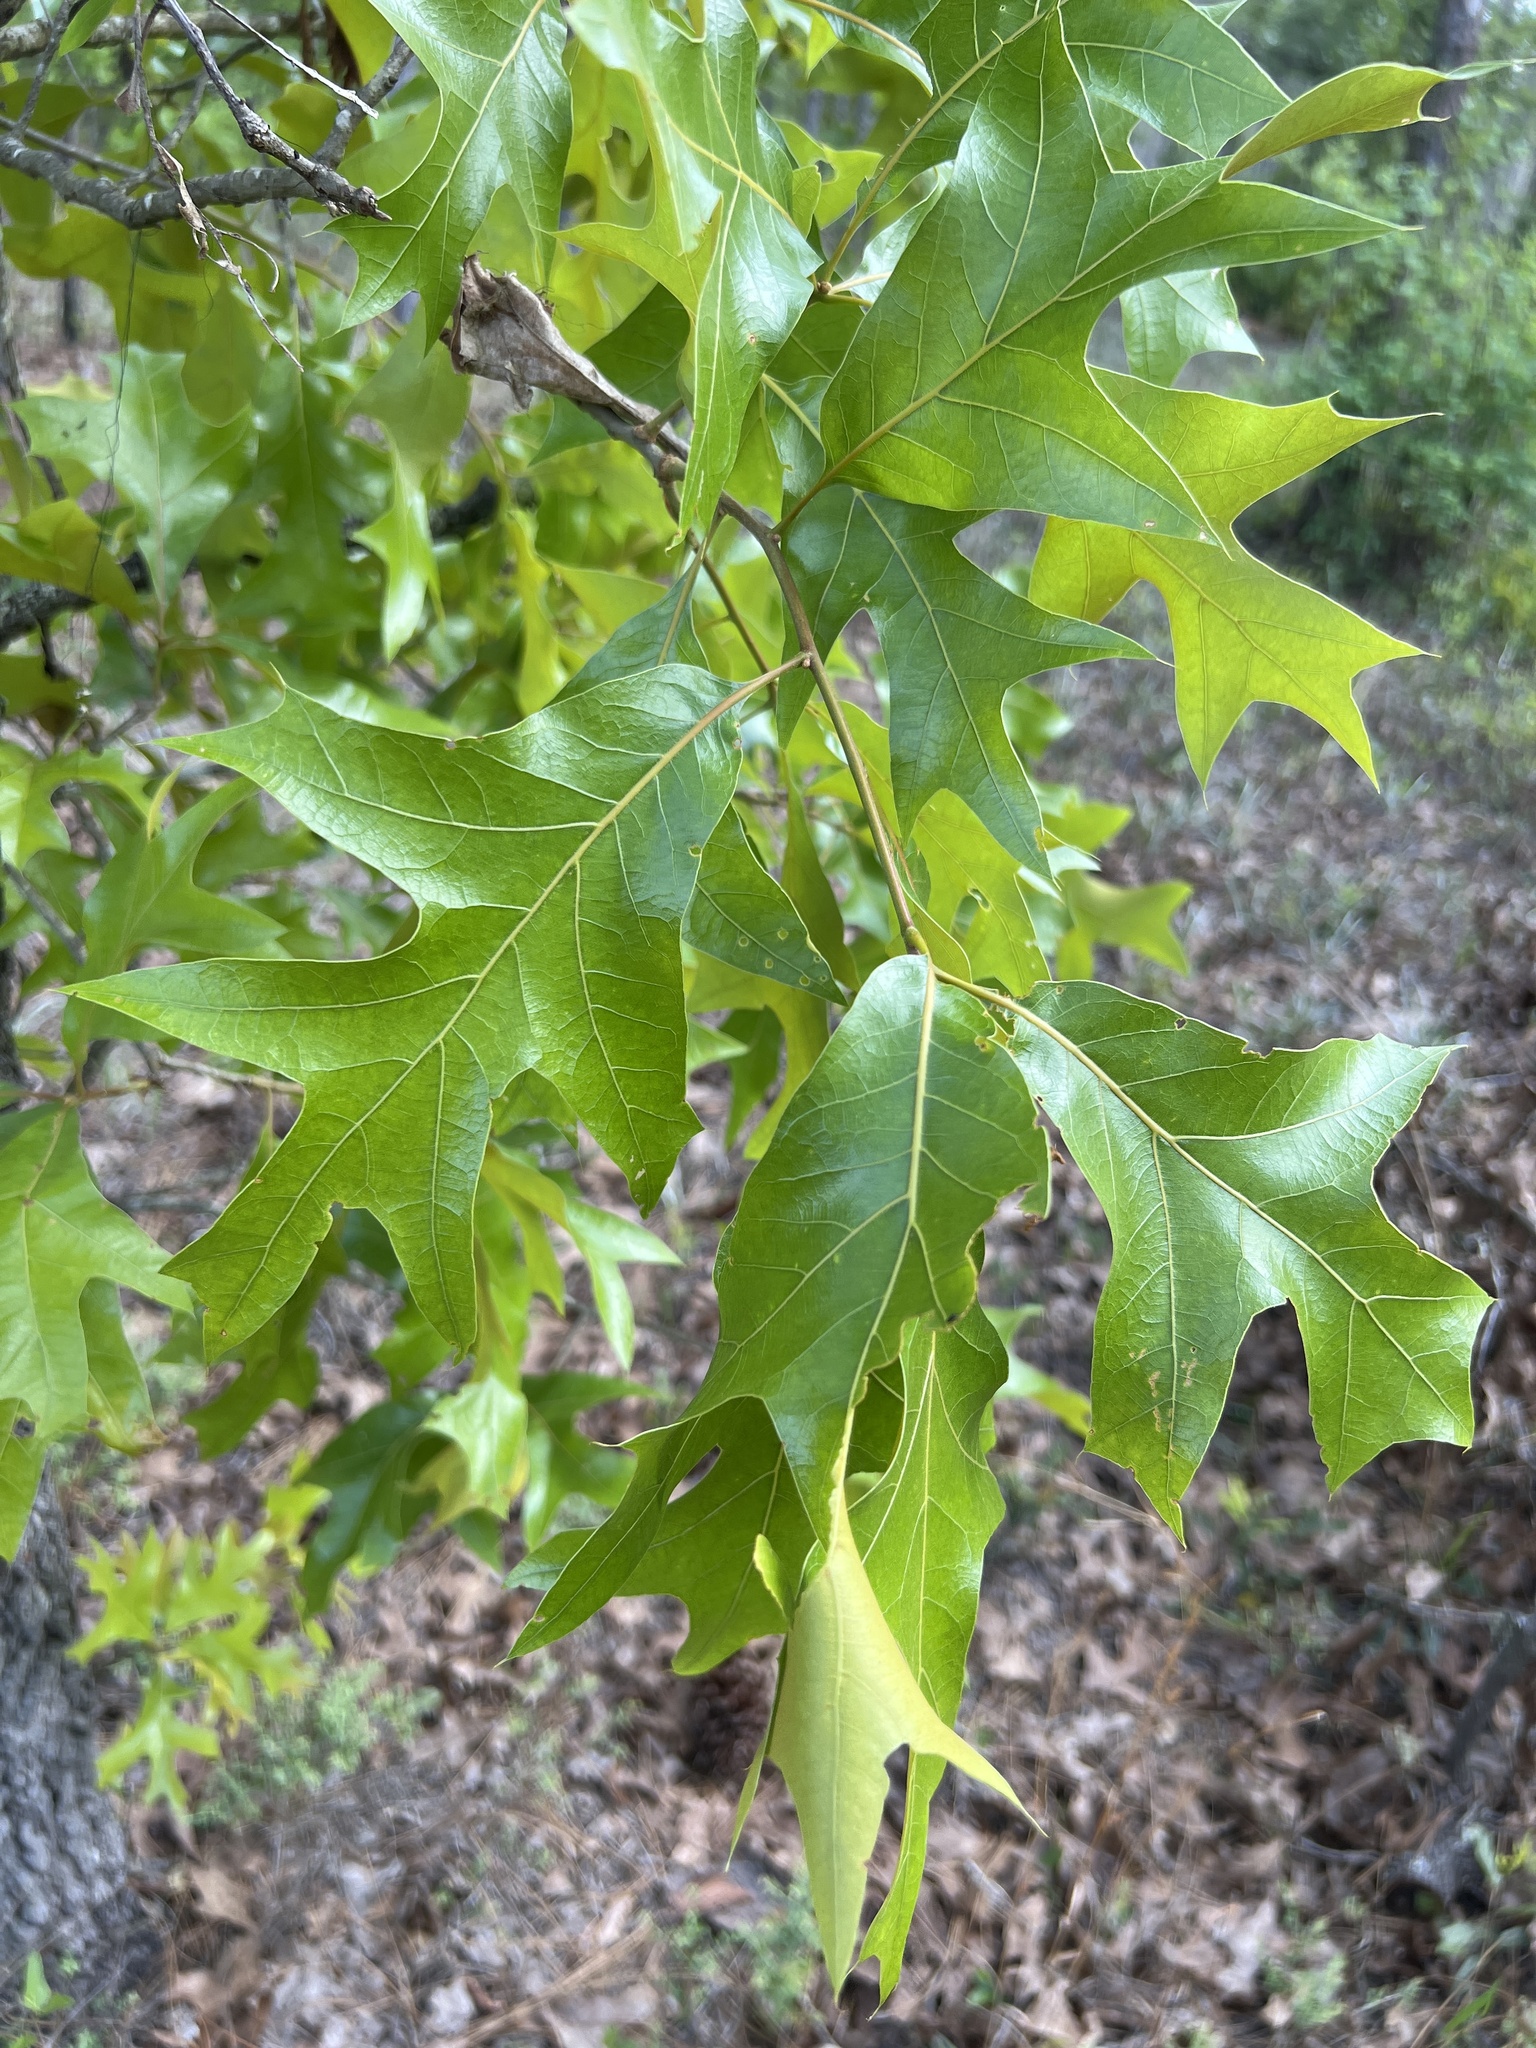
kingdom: Plantae
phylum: Tracheophyta
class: Magnoliopsida
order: Fagales
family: Fagaceae
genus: Quercus
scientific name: Quercus laevis
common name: Turkey oak
